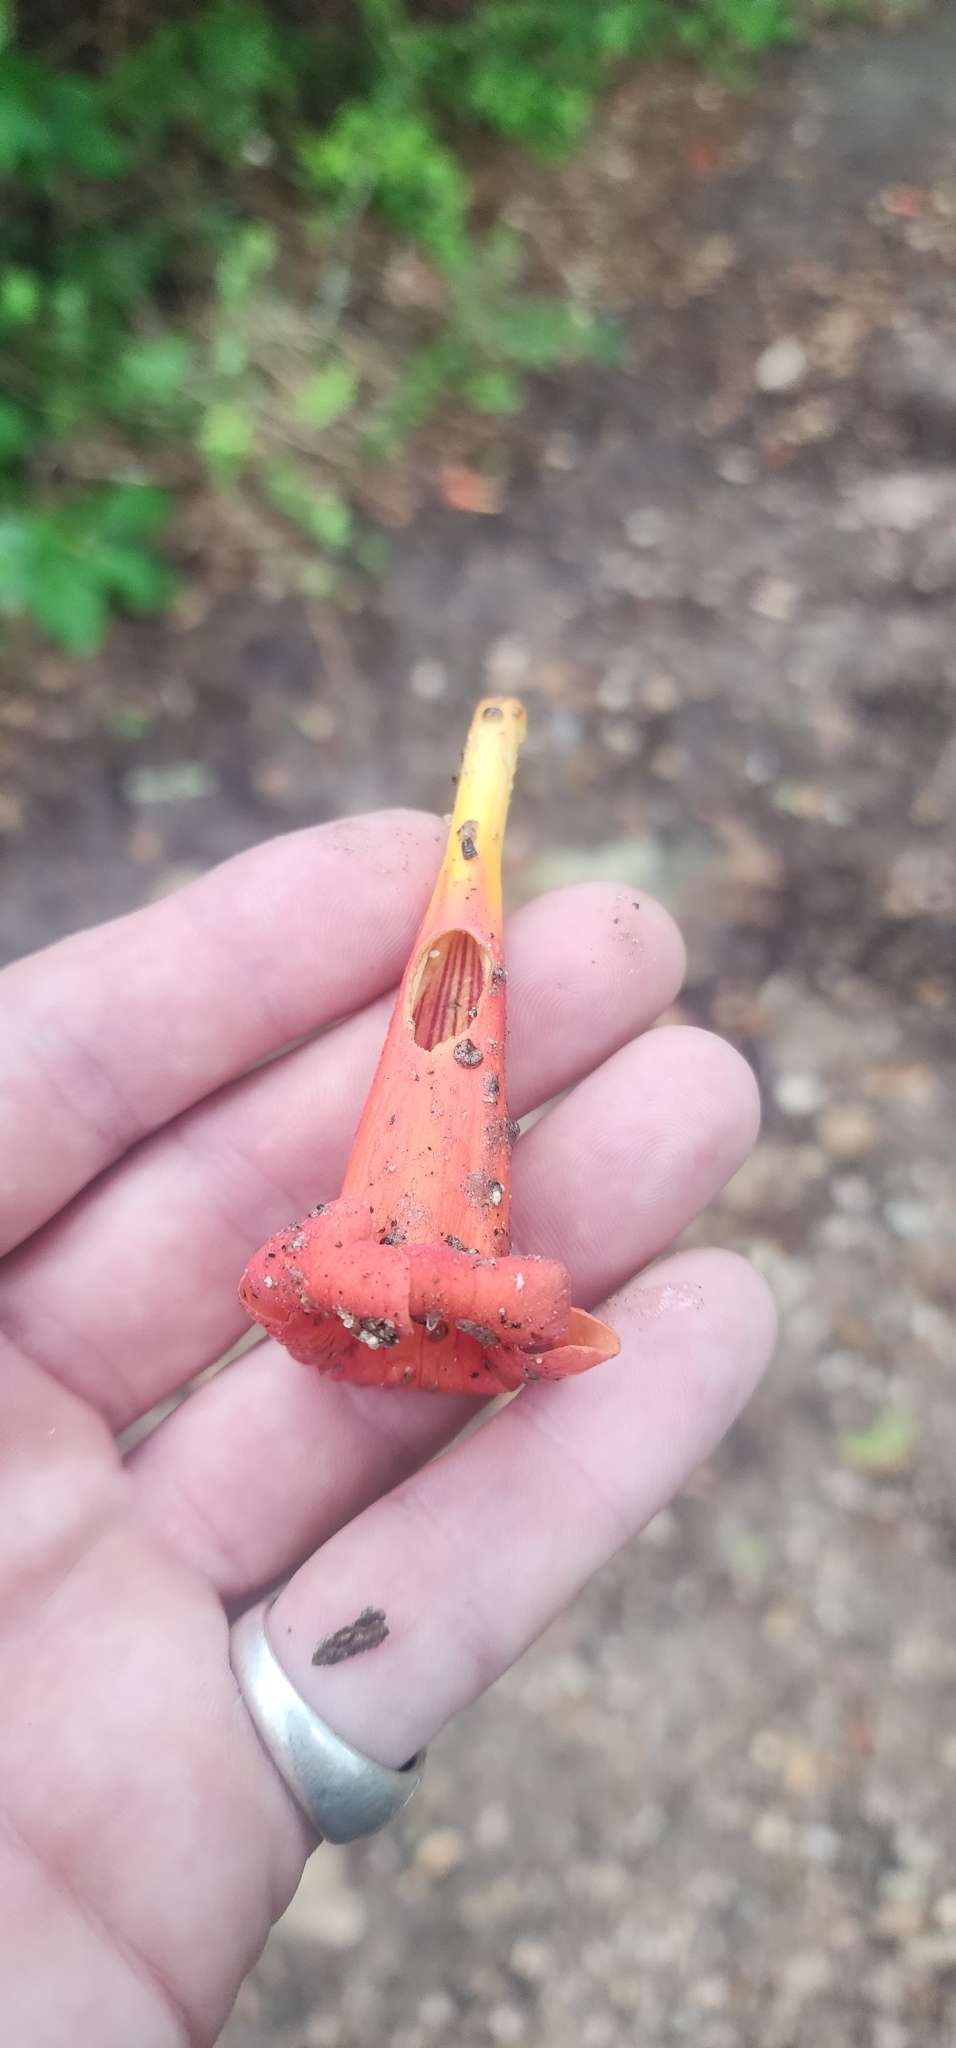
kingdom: Plantae
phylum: Tracheophyta
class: Magnoliopsida
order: Lamiales
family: Bignoniaceae
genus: Campsis
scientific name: Campsis radicans
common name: Trumpet-creeper
